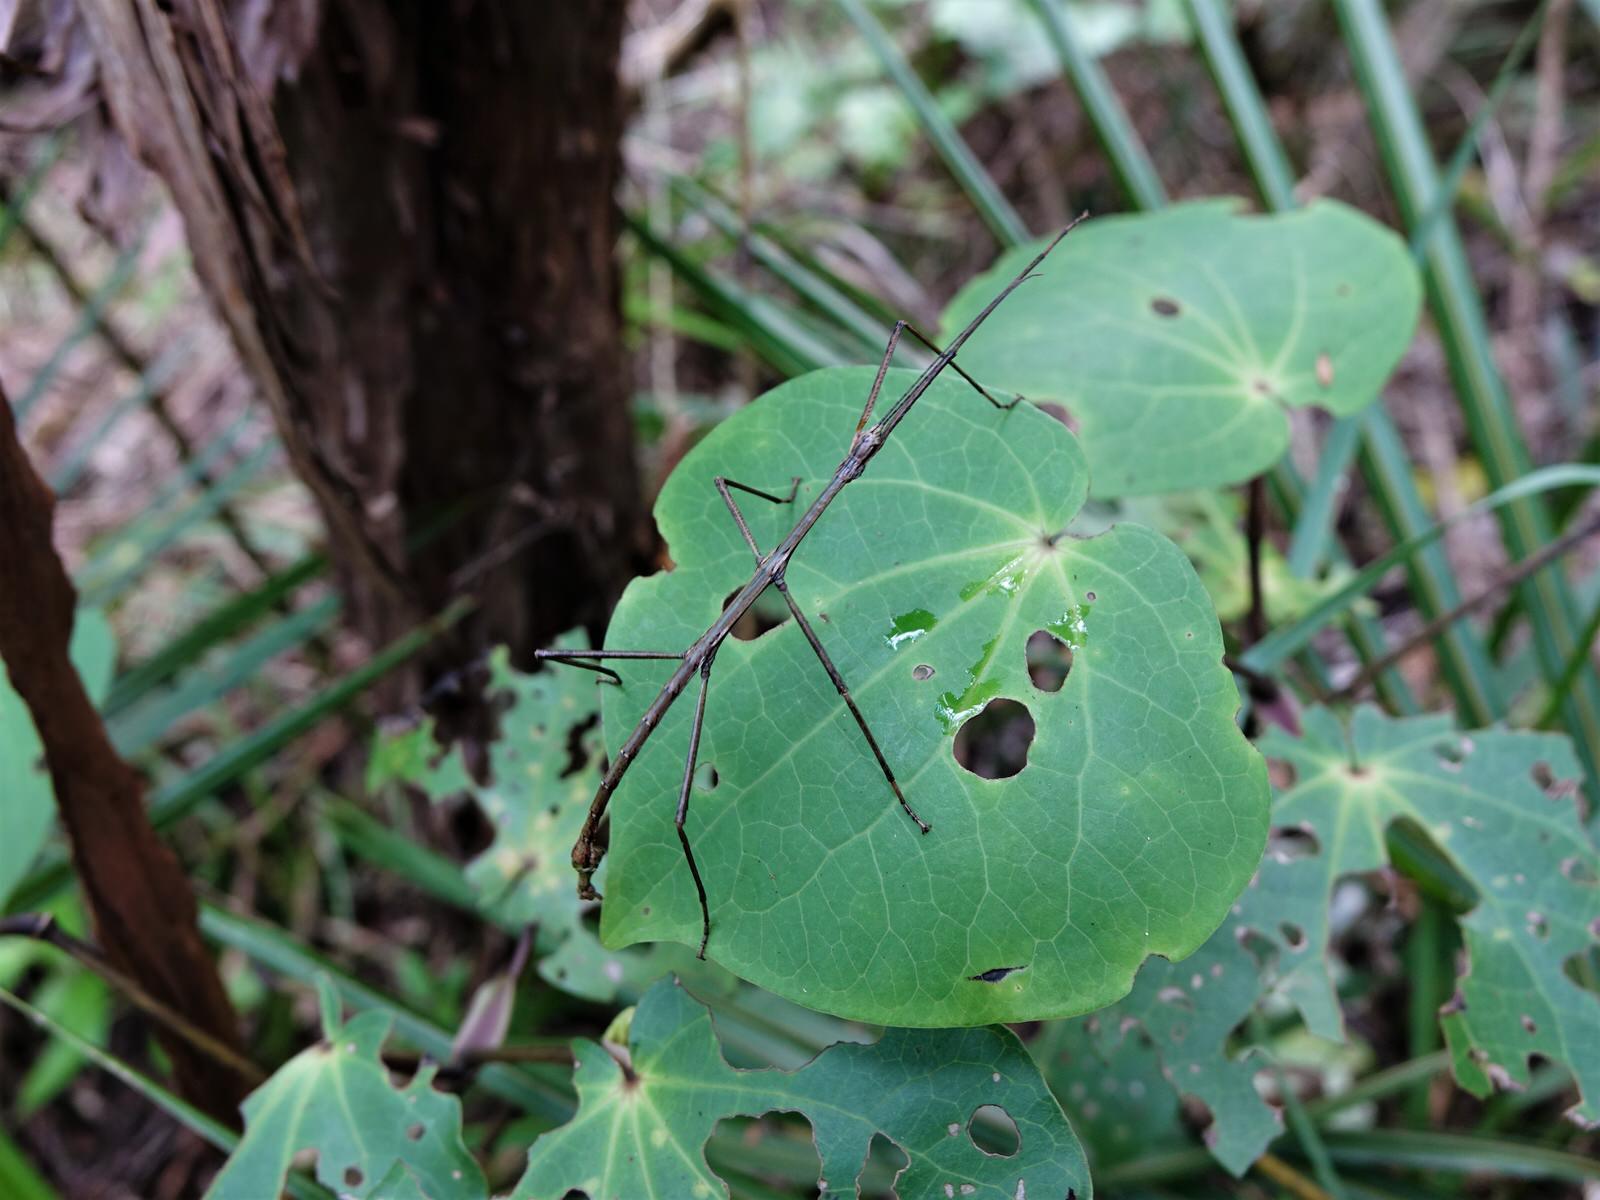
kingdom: Animalia
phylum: Arthropoda
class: Insecta
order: Phasmida
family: Phasmatidae
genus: Clitarchus
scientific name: Clitarchus hookeri
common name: Smooth stick insect
